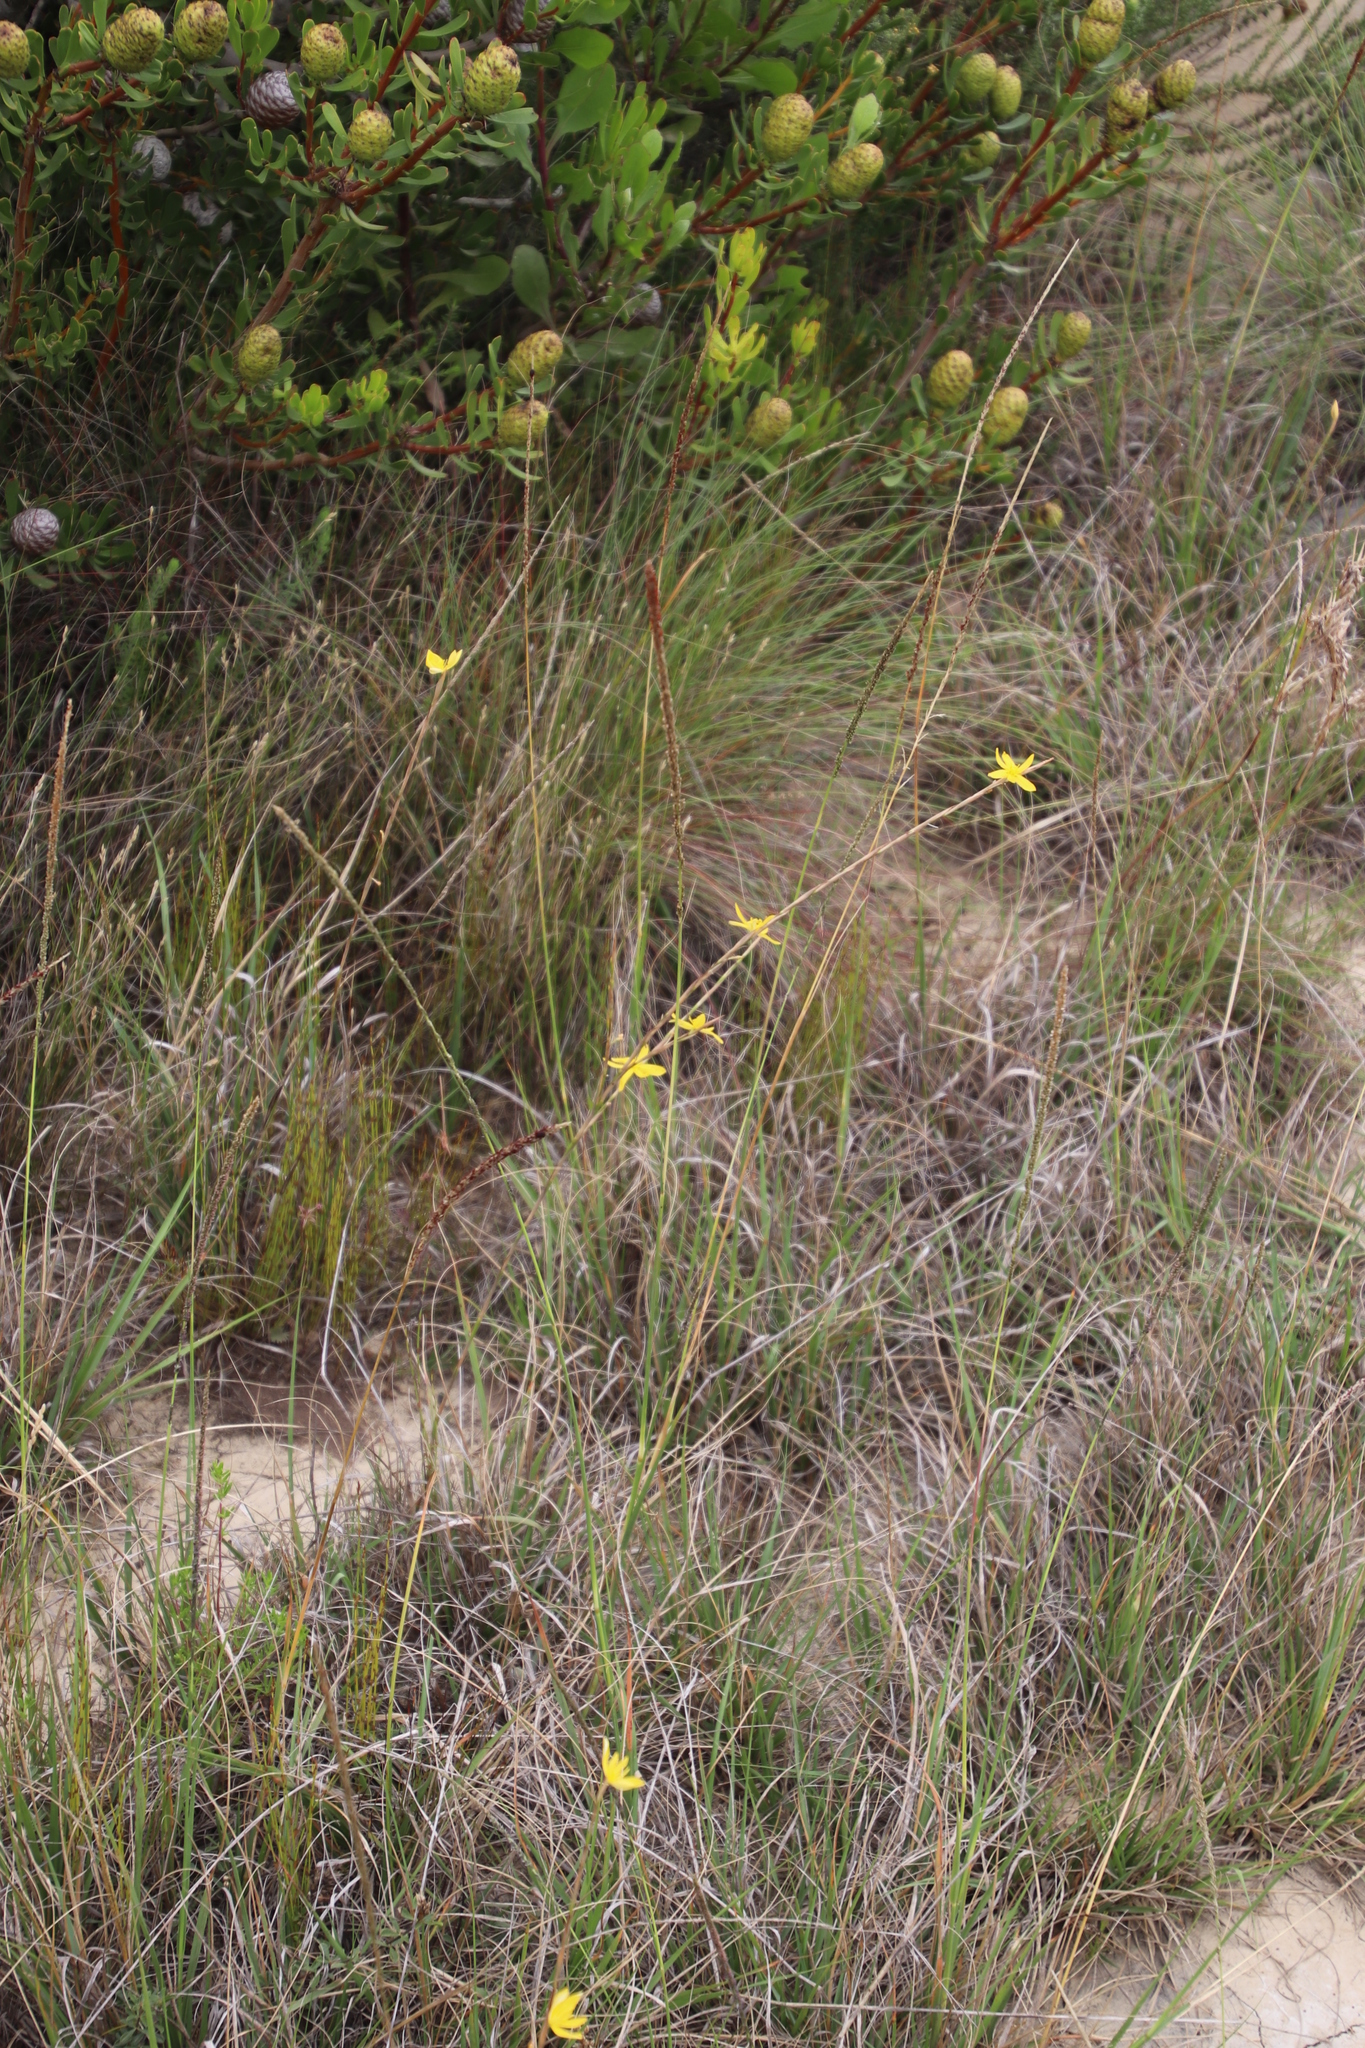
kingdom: Plantae
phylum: Tracheophyta
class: Liliopsida
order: Asparagales
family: Iridaceae
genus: Moraea
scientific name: Moraea lewisiae
